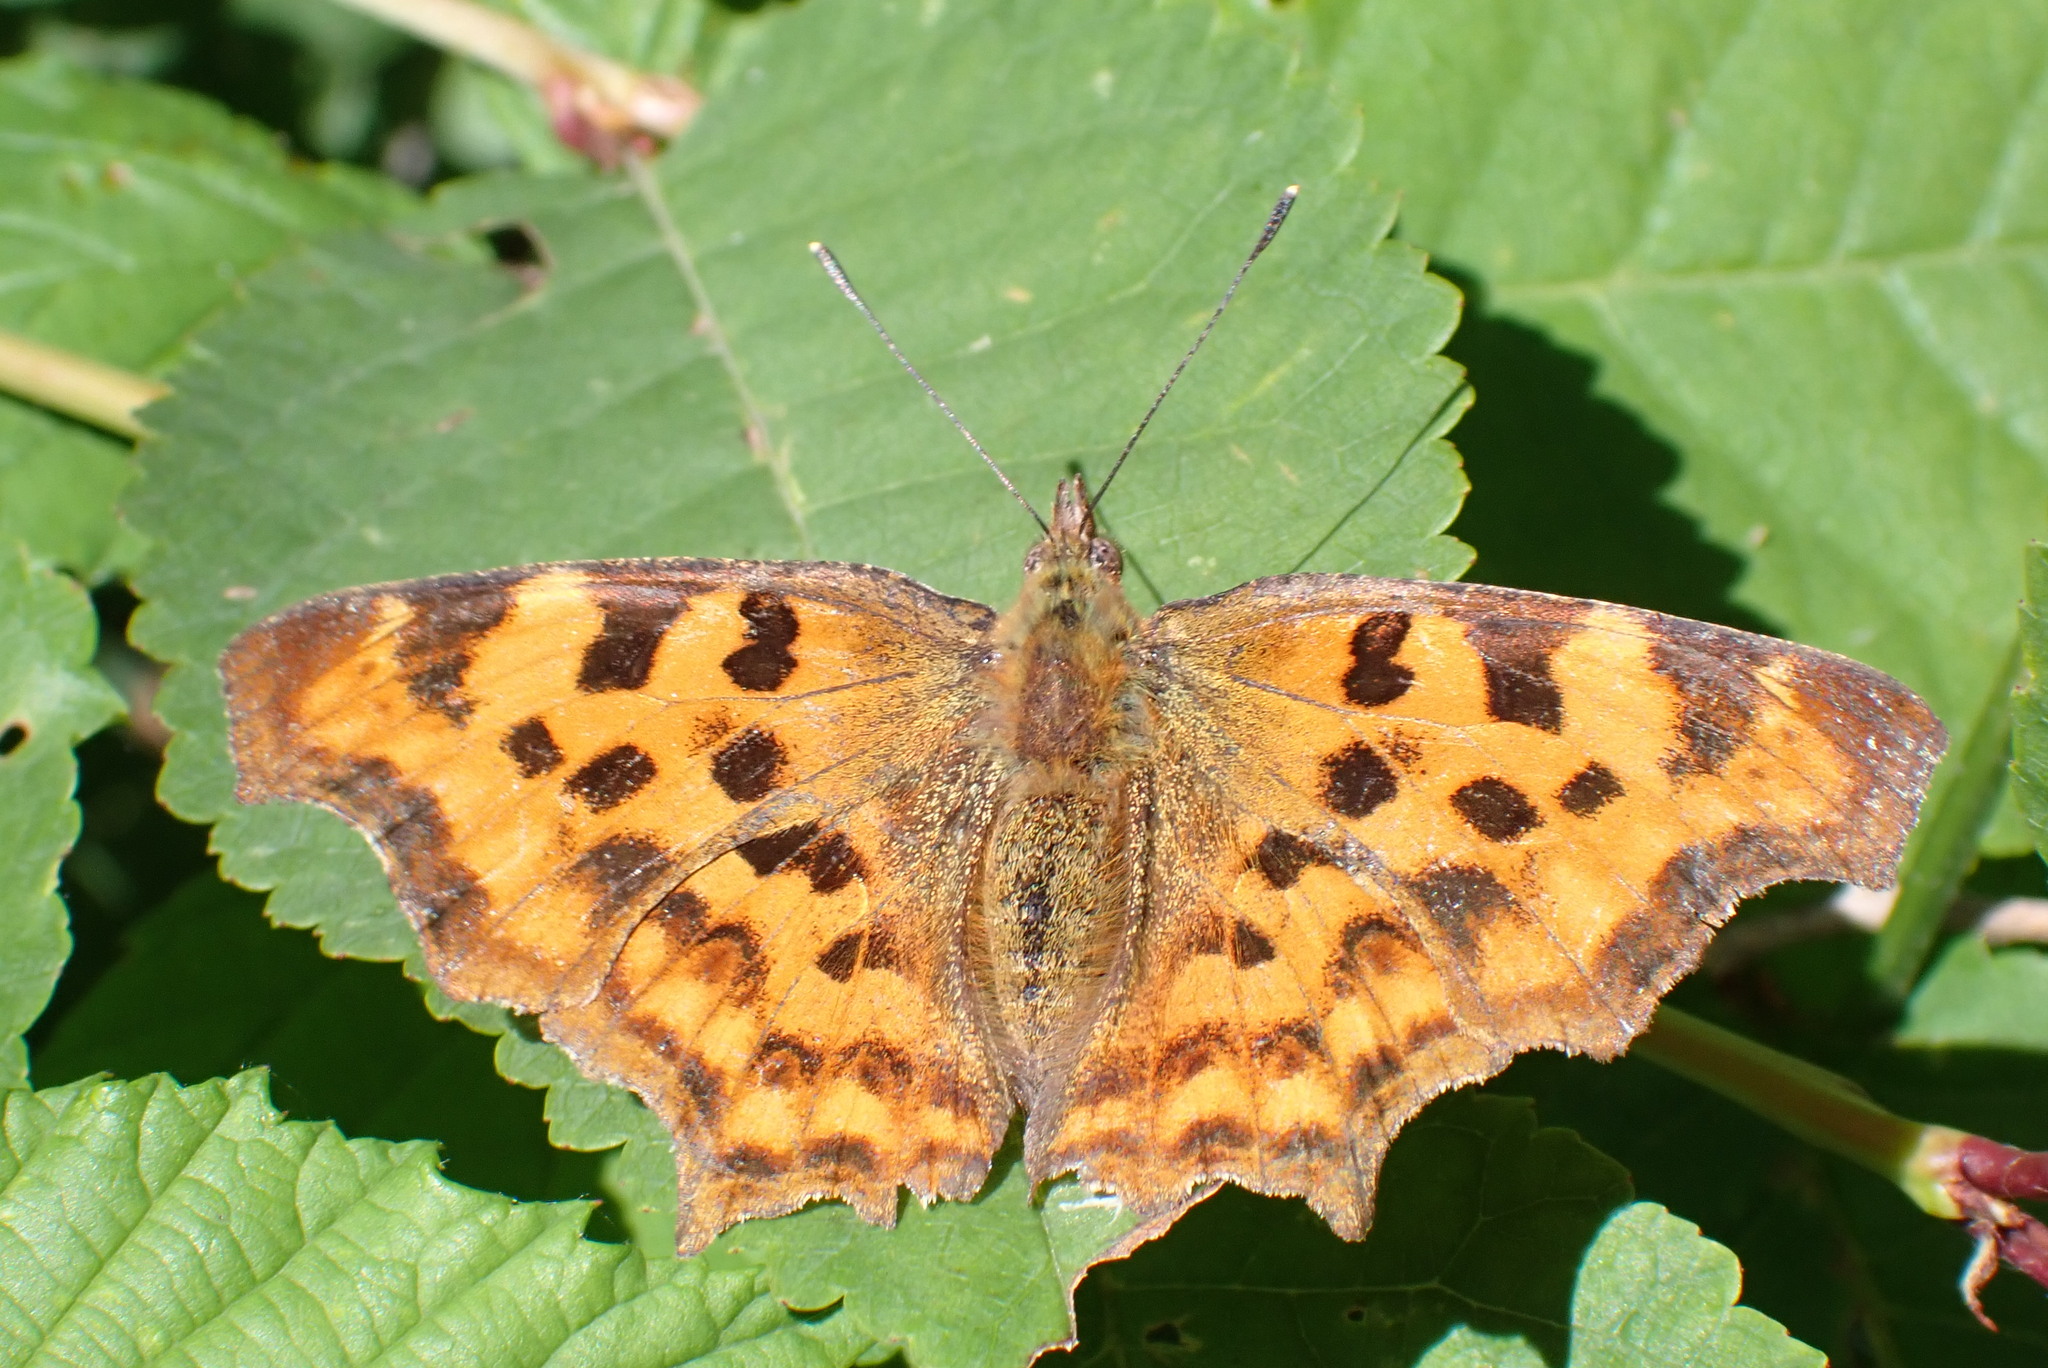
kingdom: Animalia
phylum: Arthropoda
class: Insecta
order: Lepidoptera
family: Nymphalidae
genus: Polygonia
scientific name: Polygonia c-album
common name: Comma
